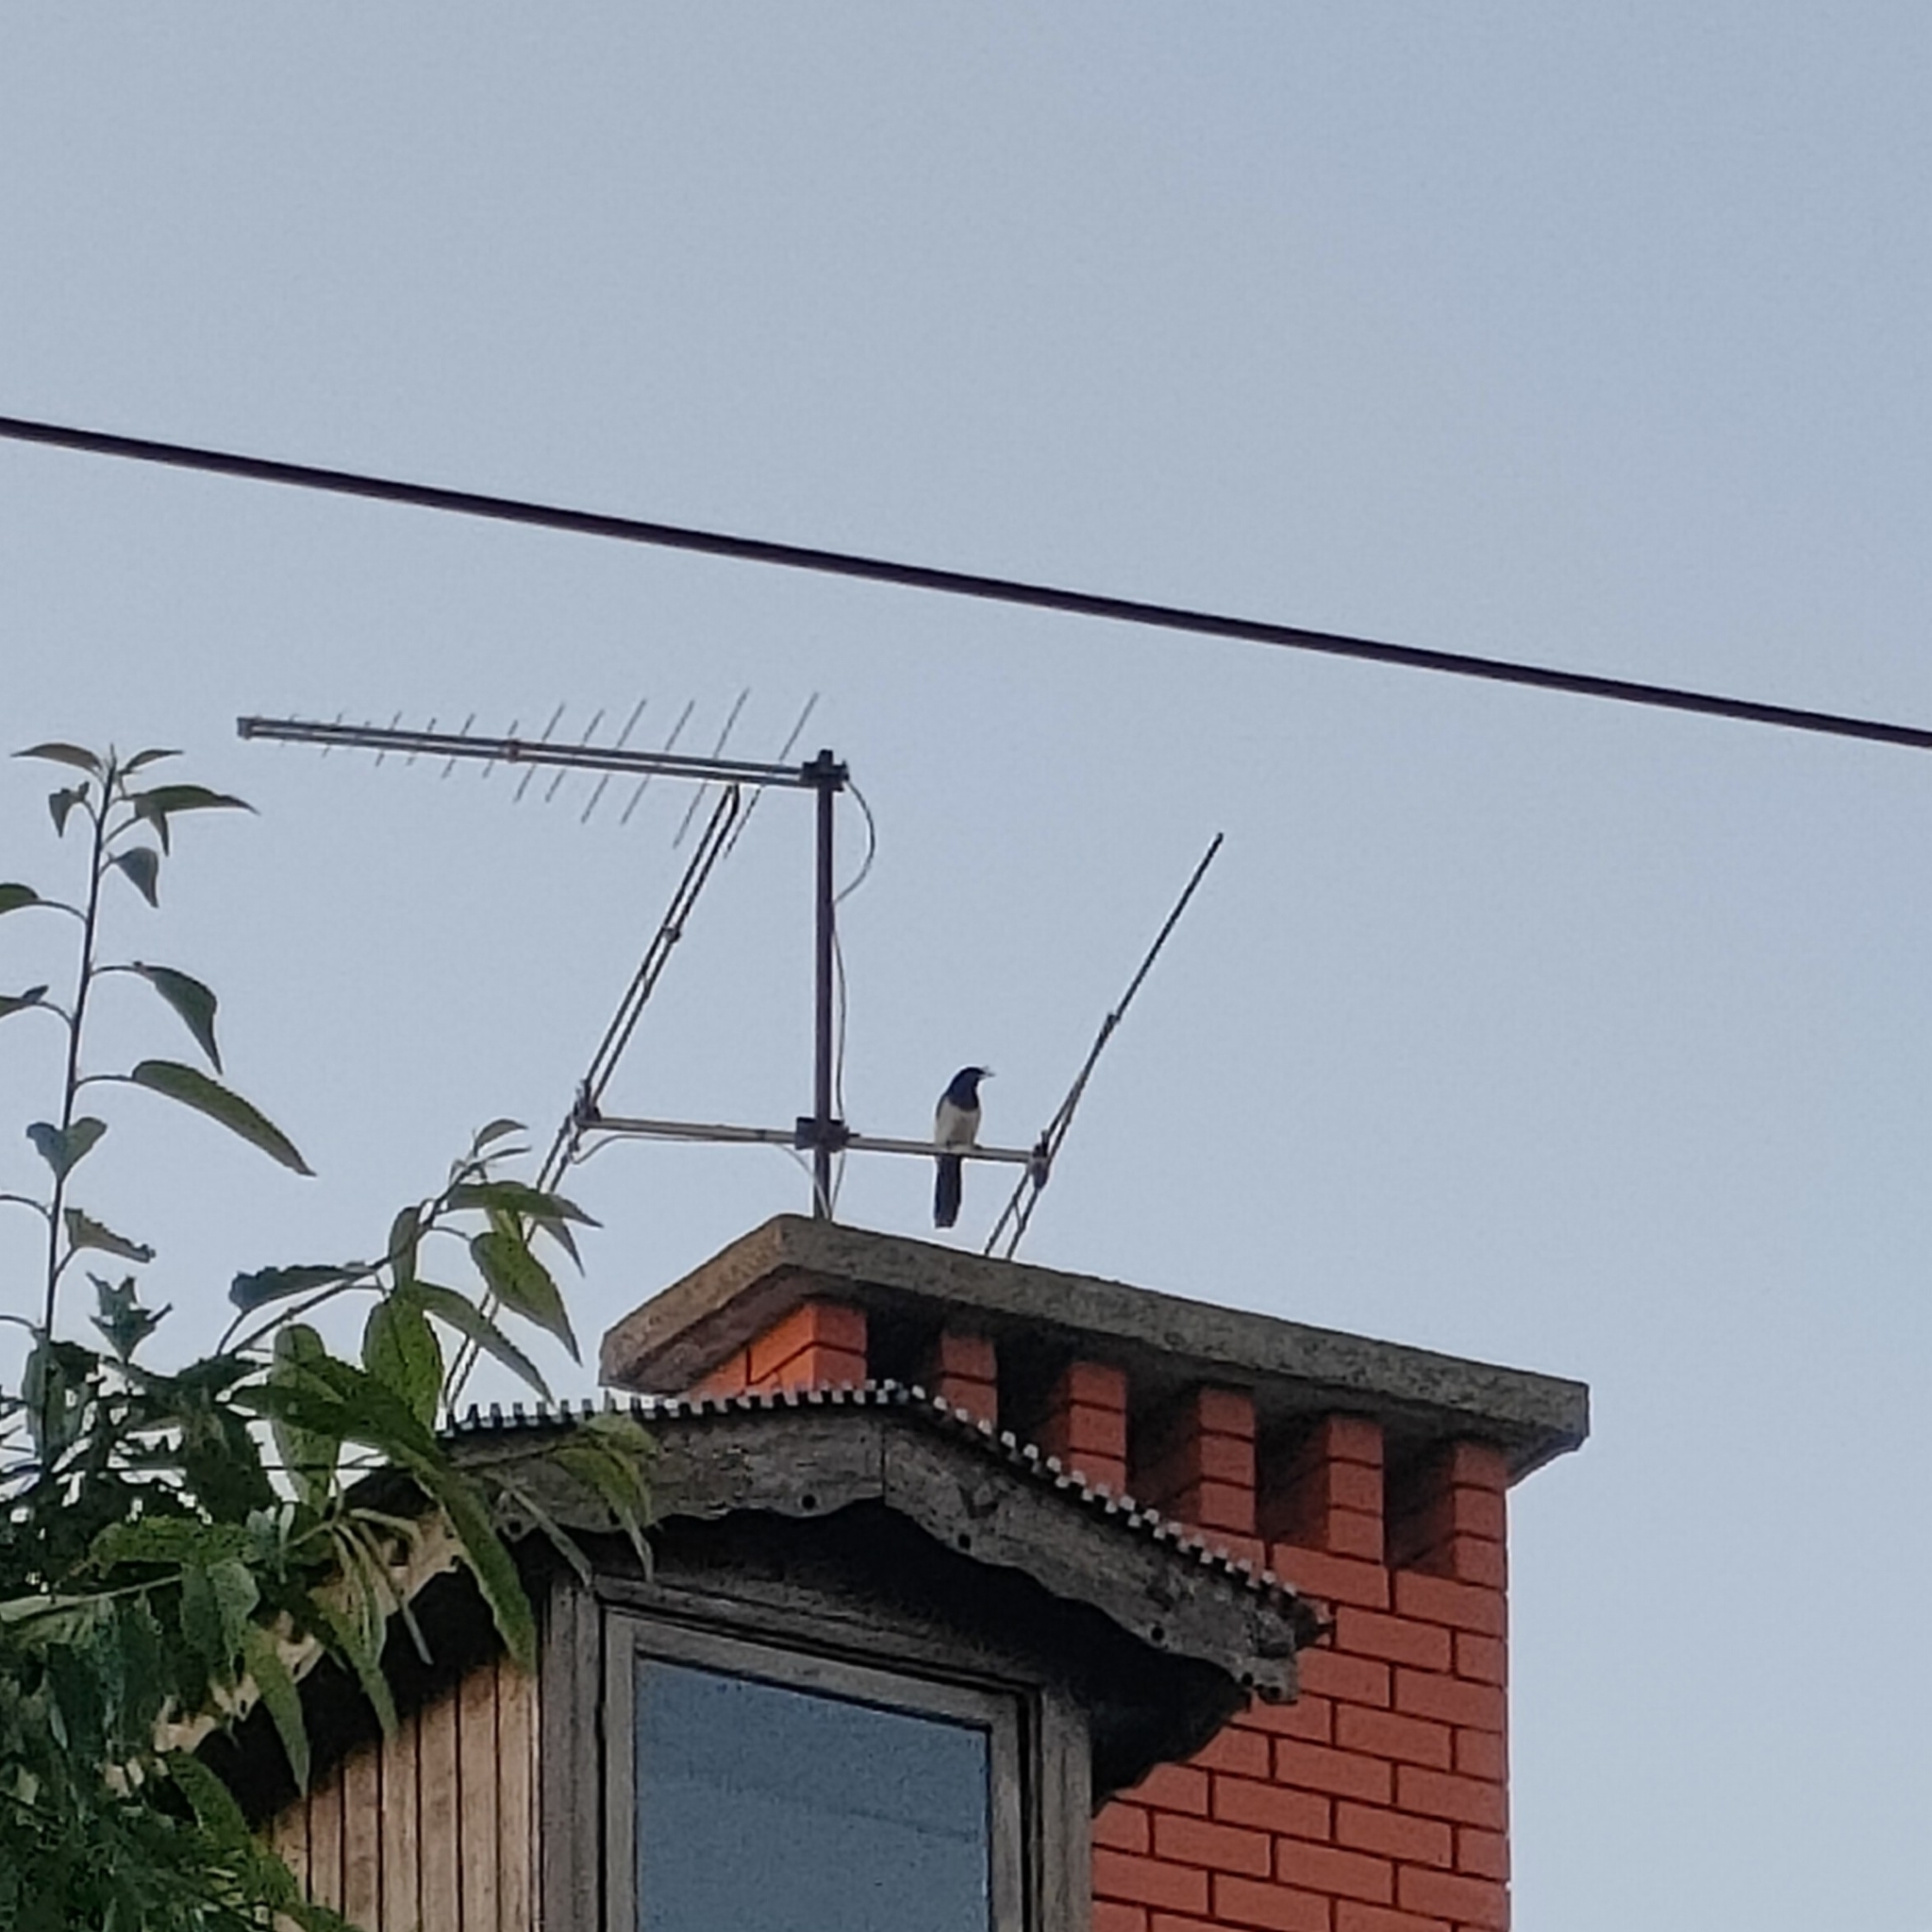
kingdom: Animalia
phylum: Chordata
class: Aves
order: Passeriformes
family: Corvidae
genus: Pica
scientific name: Pica pica
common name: Eurasian magpie
